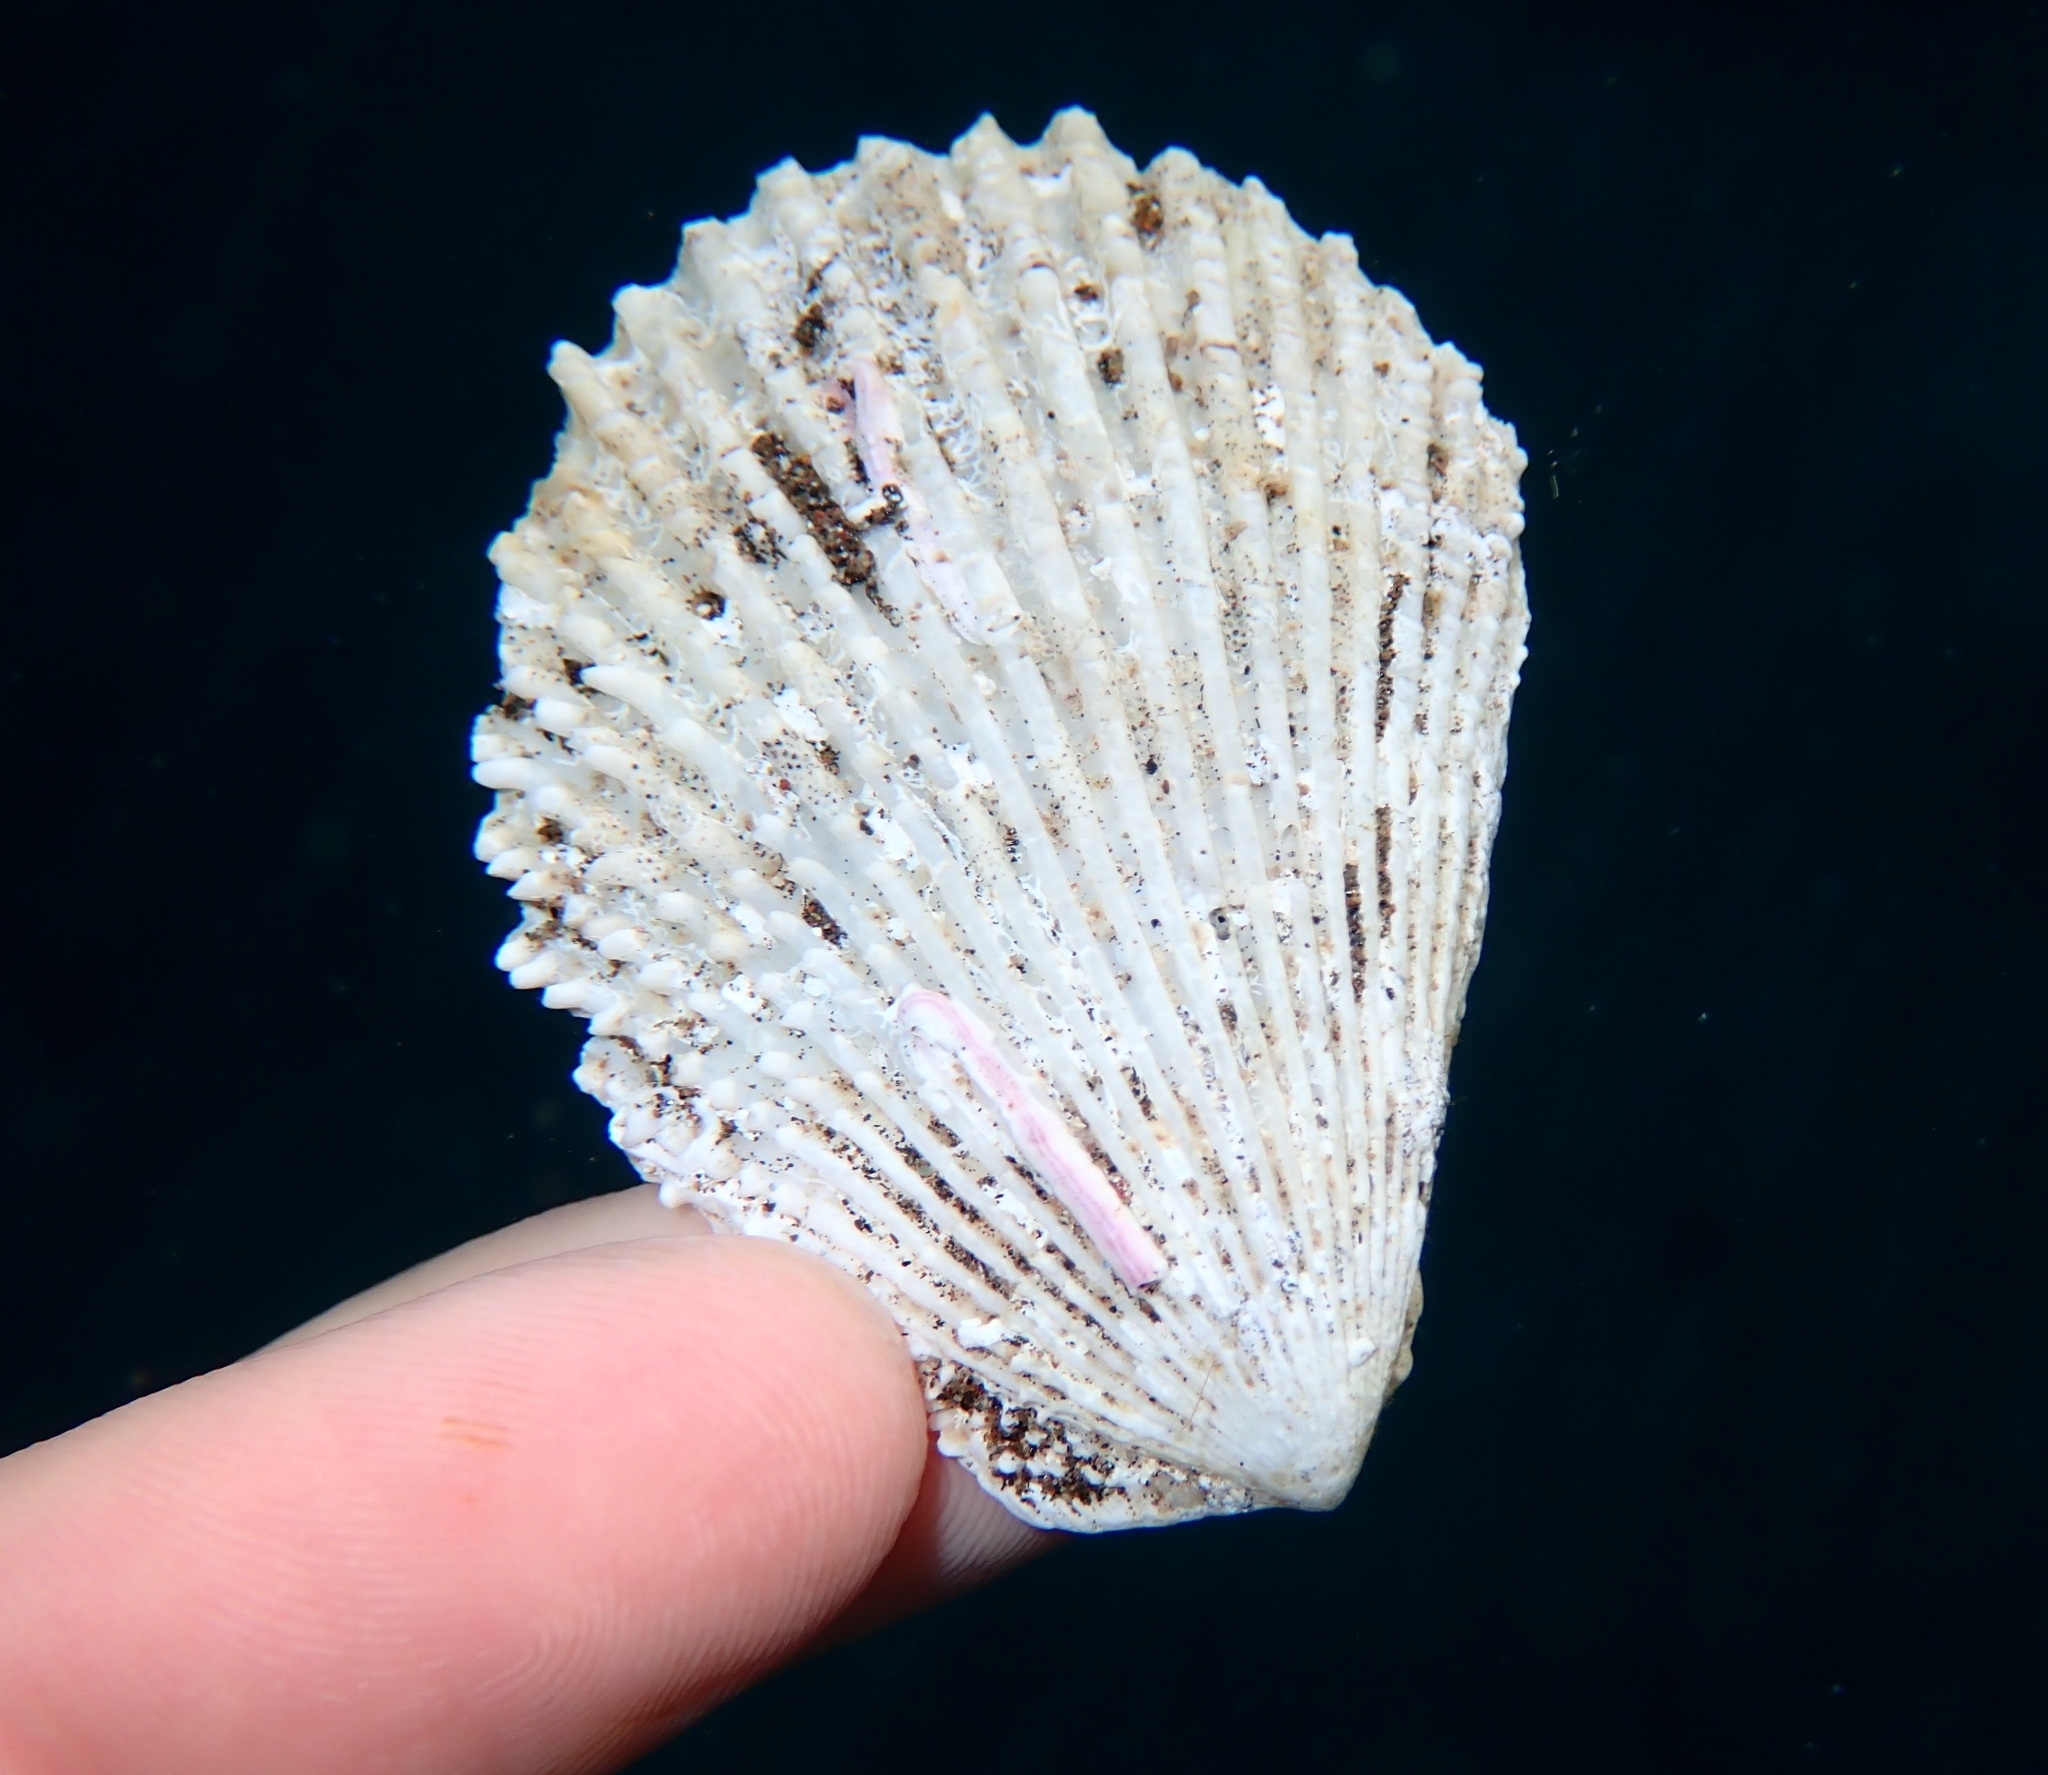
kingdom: Animalia
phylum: Mollusca
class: Bivalvia
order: Limida
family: Limidae
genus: Lima
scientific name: Lima lima
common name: Frilled file shell
